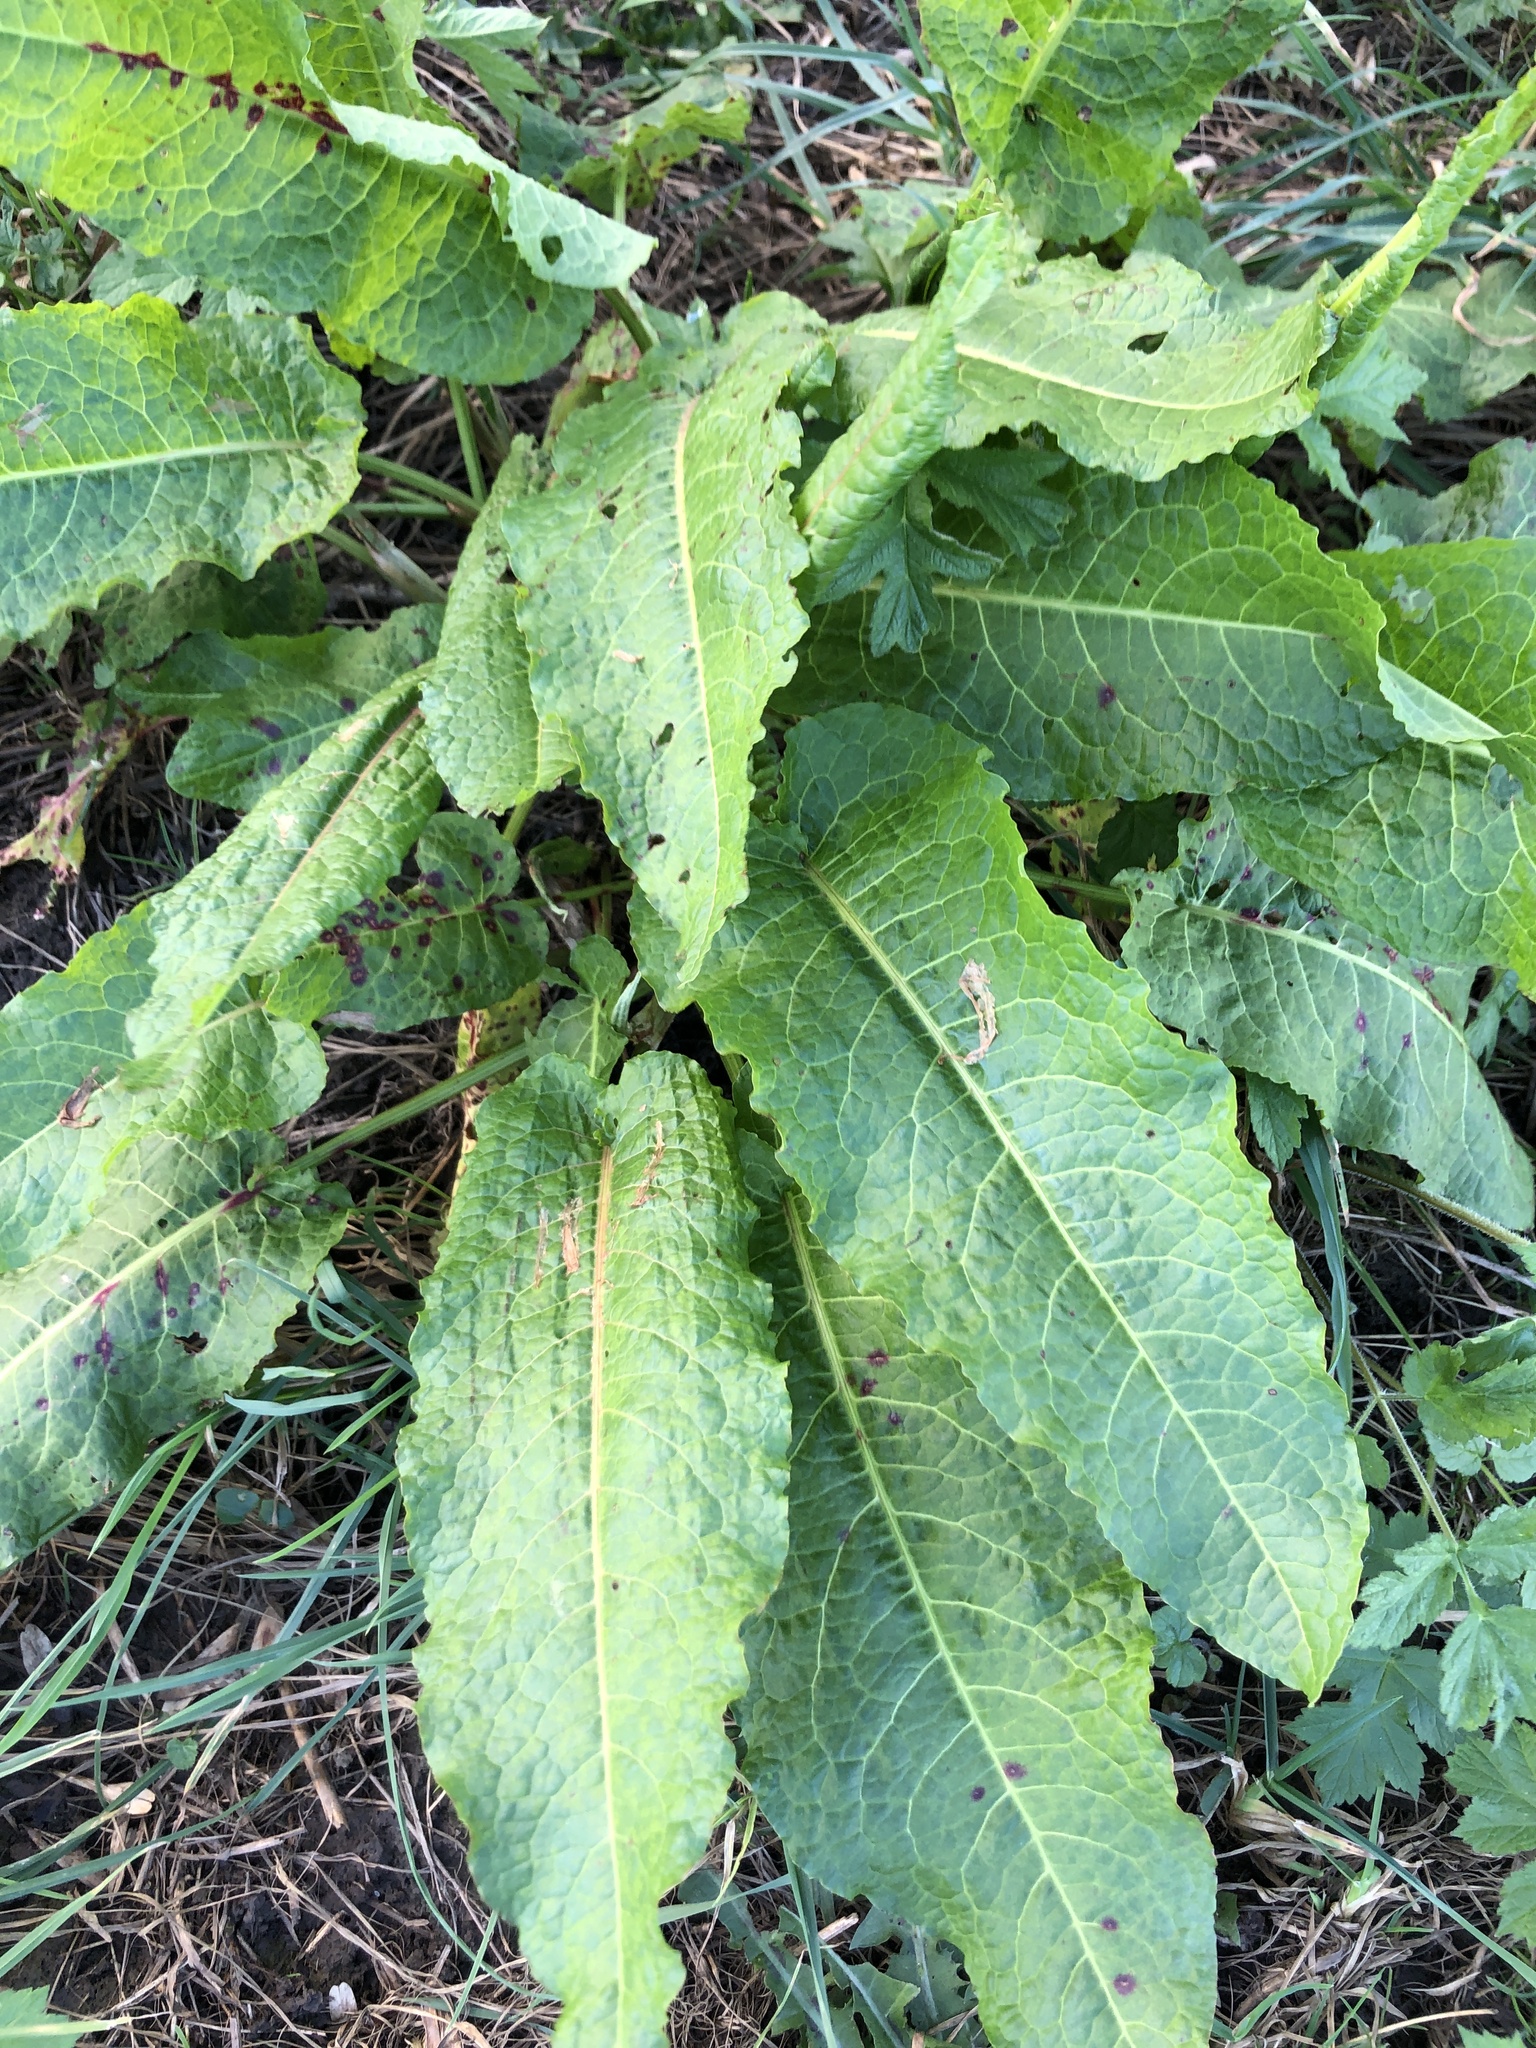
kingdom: Plantae
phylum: Tracheophyta
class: Magnoliopsida
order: Caryophyllales
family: Polygonaceae
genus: Rumex
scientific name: Rumex obtusifolius
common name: Bitter dock
